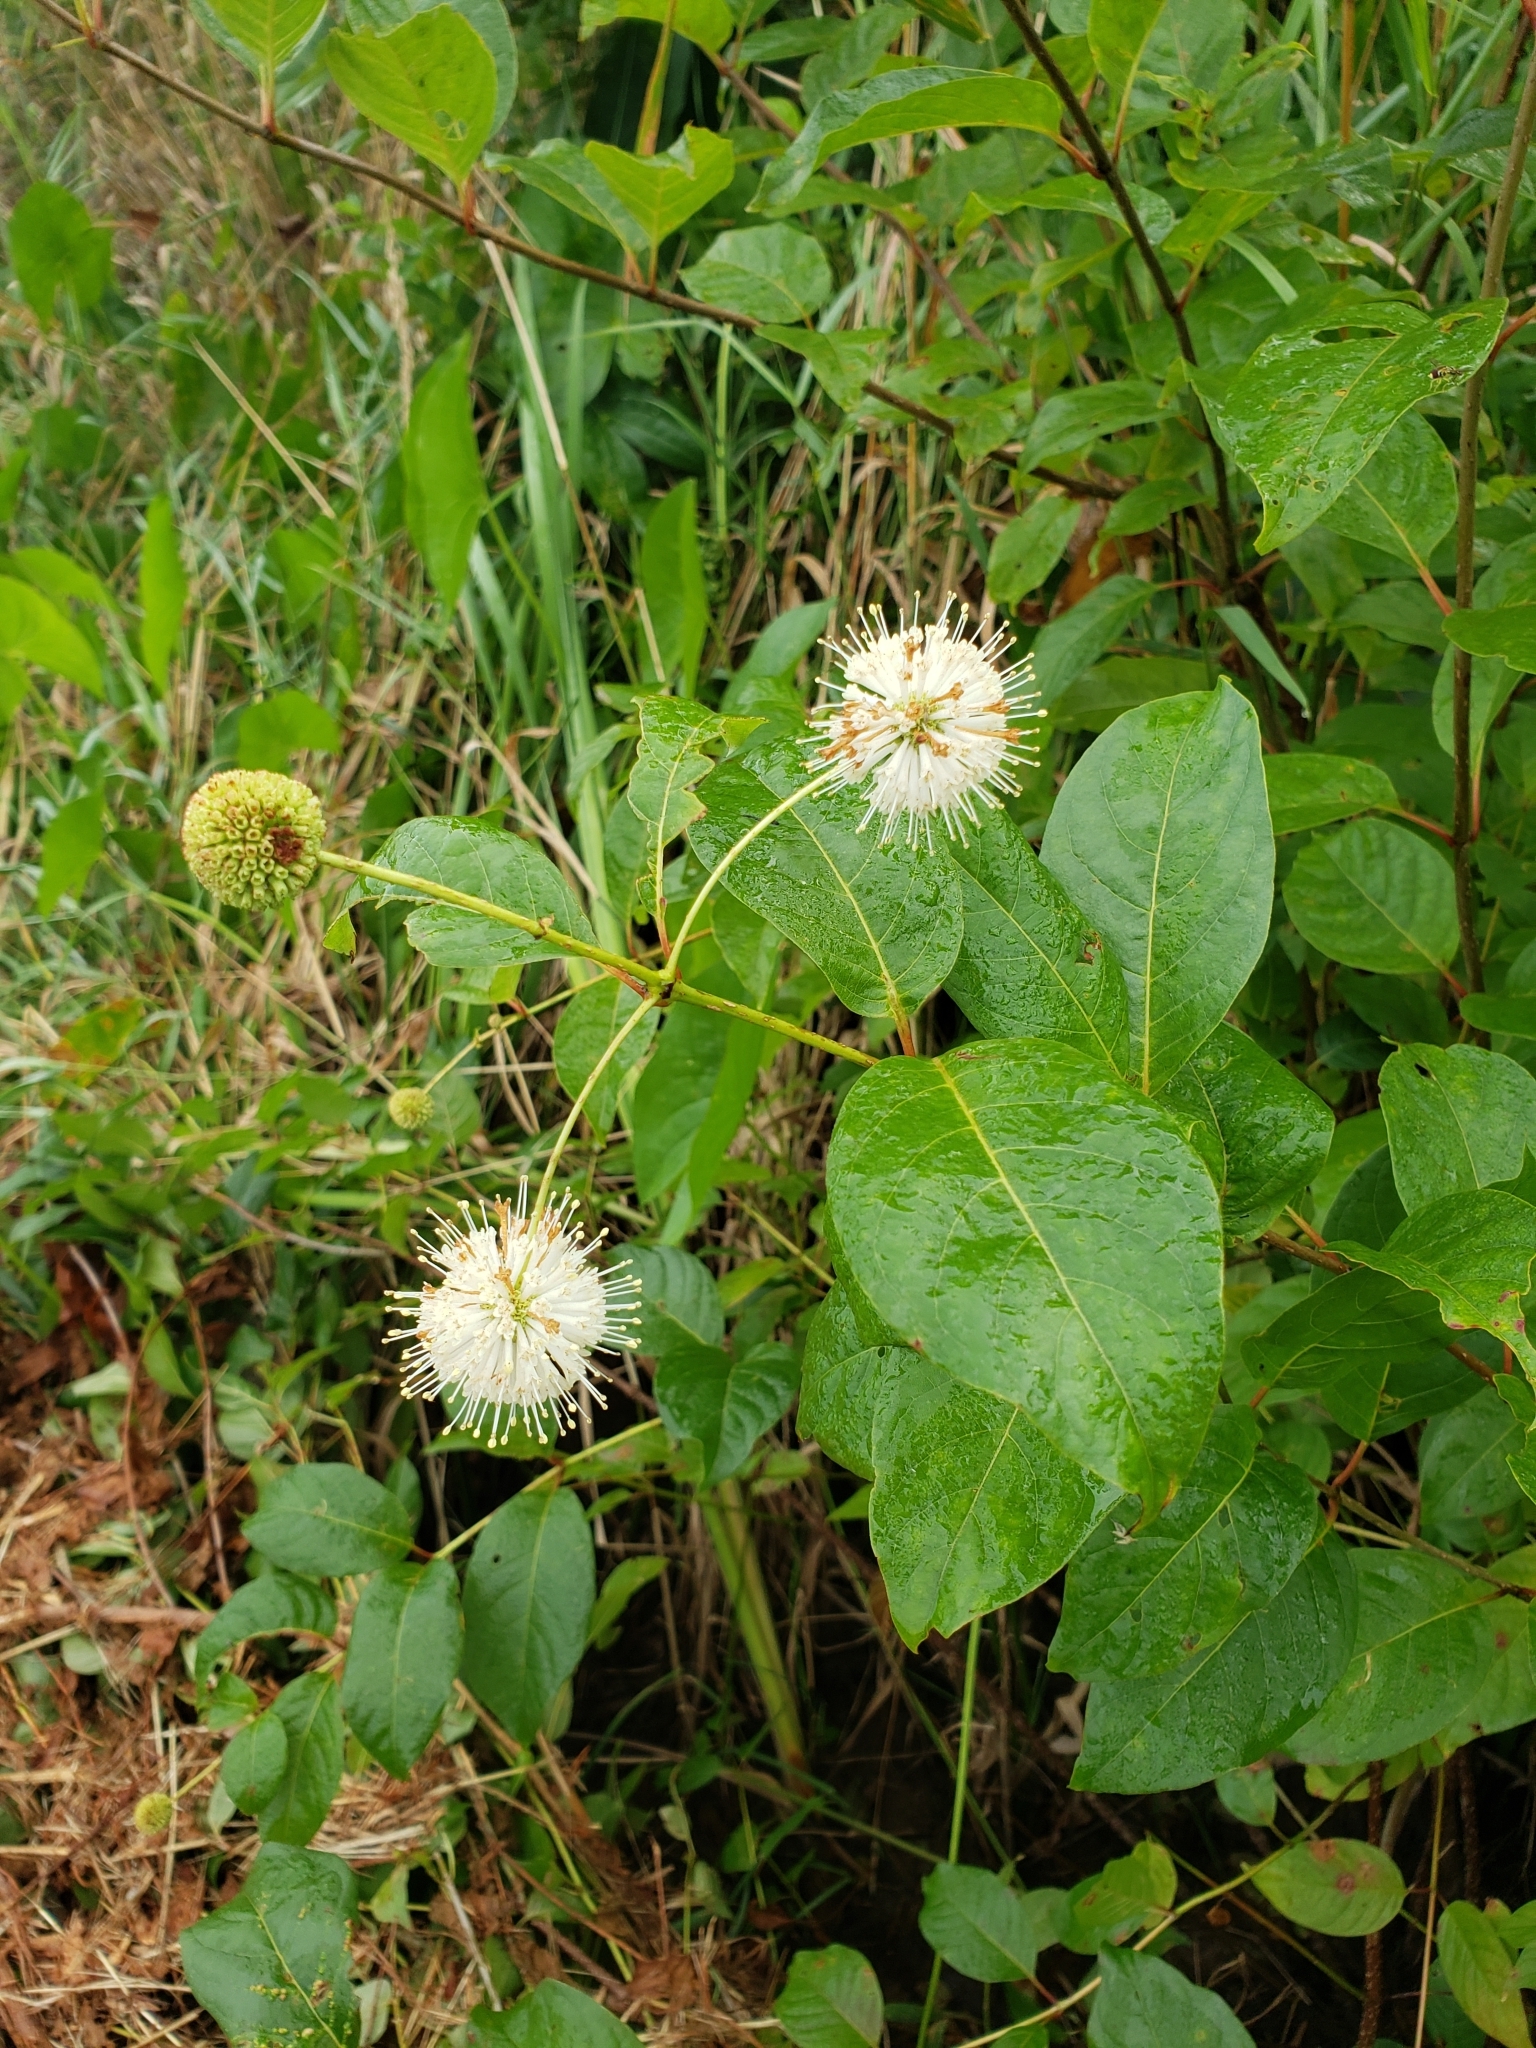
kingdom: Plantae
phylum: Tracheophyta
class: Magnoliopsida
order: Gentianales
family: Rubiaceae
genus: Cephalanthus
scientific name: Cephalanthus occidentalis
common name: Button-willow
